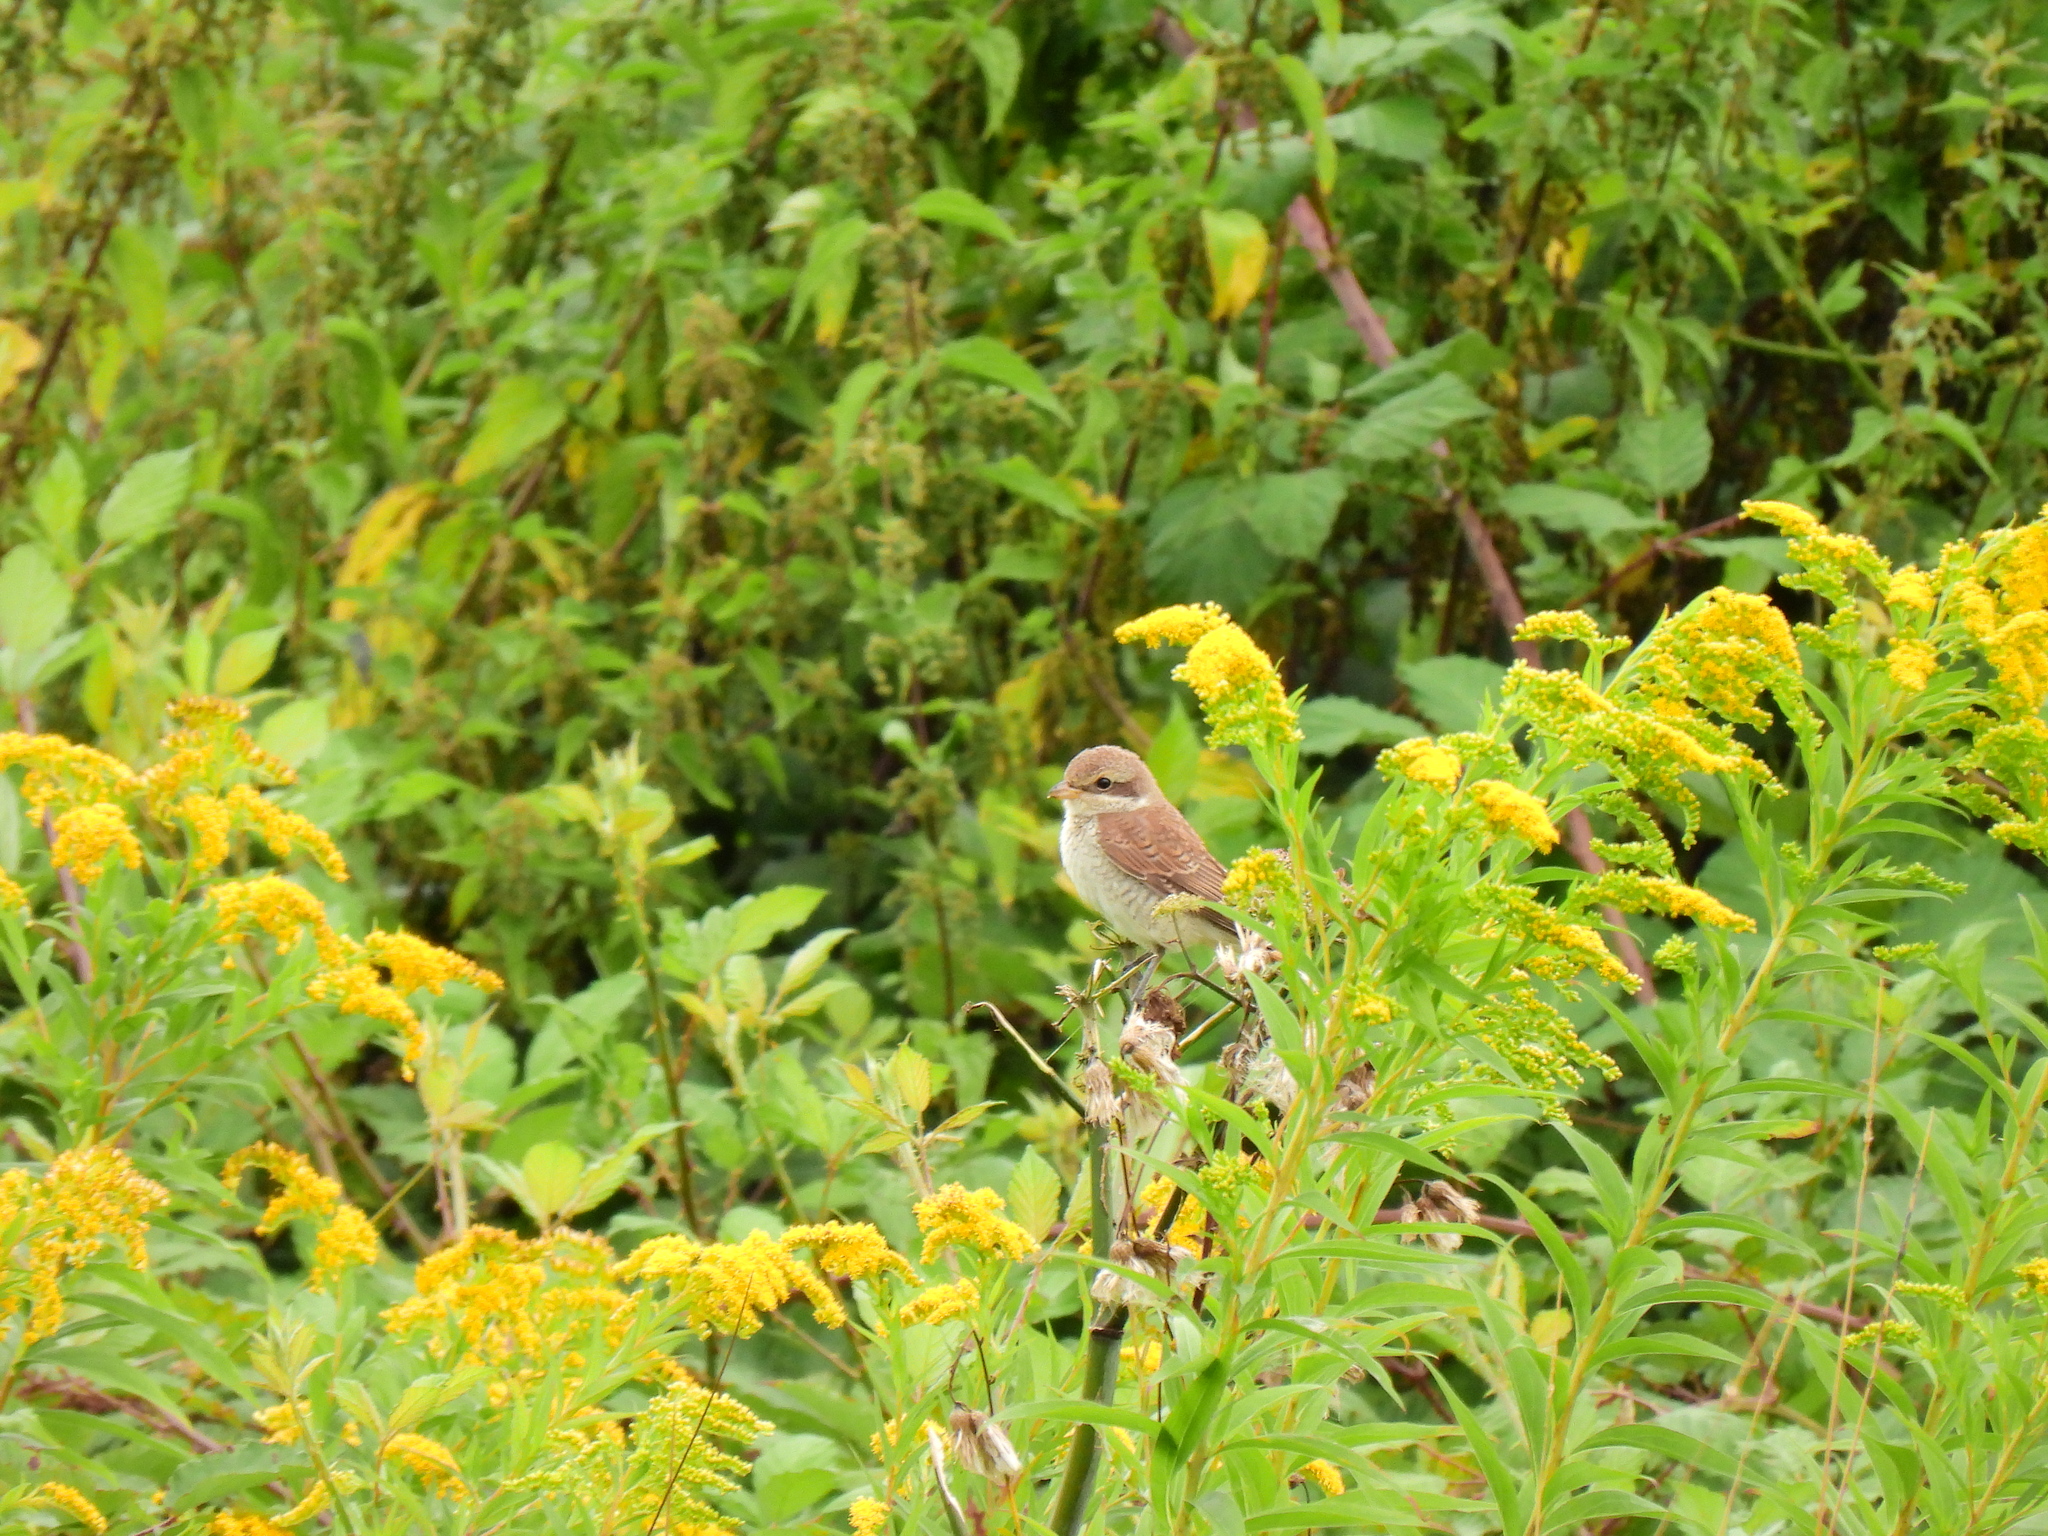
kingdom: Animalia
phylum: Chordata
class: Aves
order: Passeriformes
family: Laniidae
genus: Lanius
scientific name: Lanius collurio
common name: Red-backed shrike
